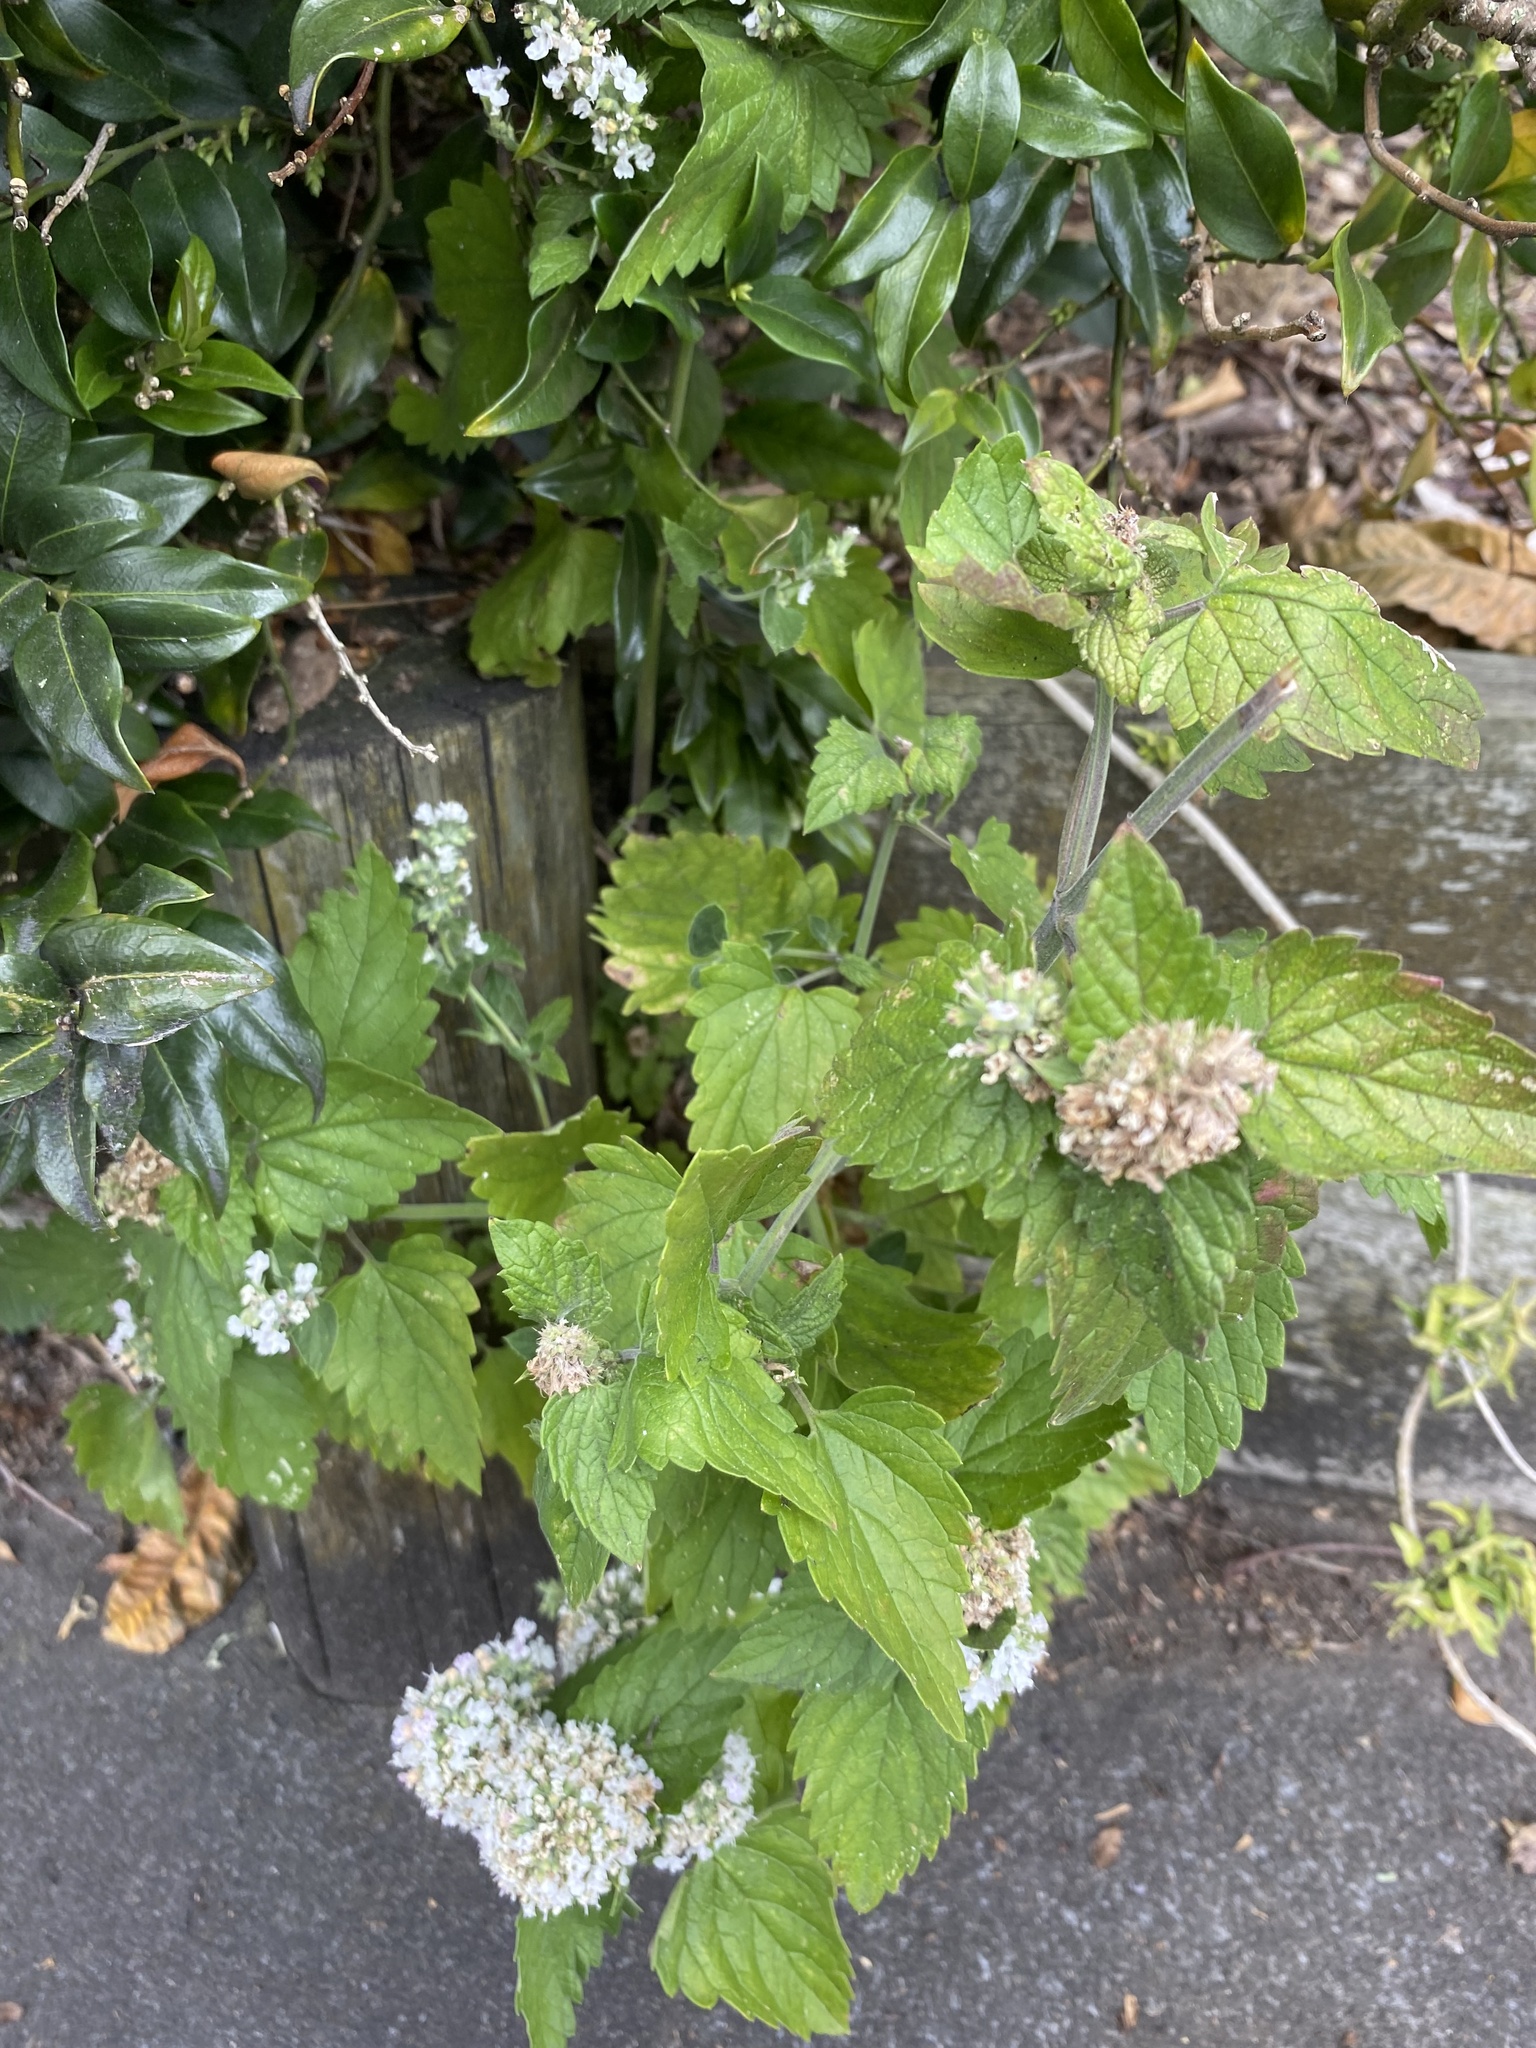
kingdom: Plantae
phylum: Tracheophyta
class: Magnoliopsida
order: Lamiales
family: Lamiaceae
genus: Nepeta
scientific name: Nepeta cataria
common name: Catnip
